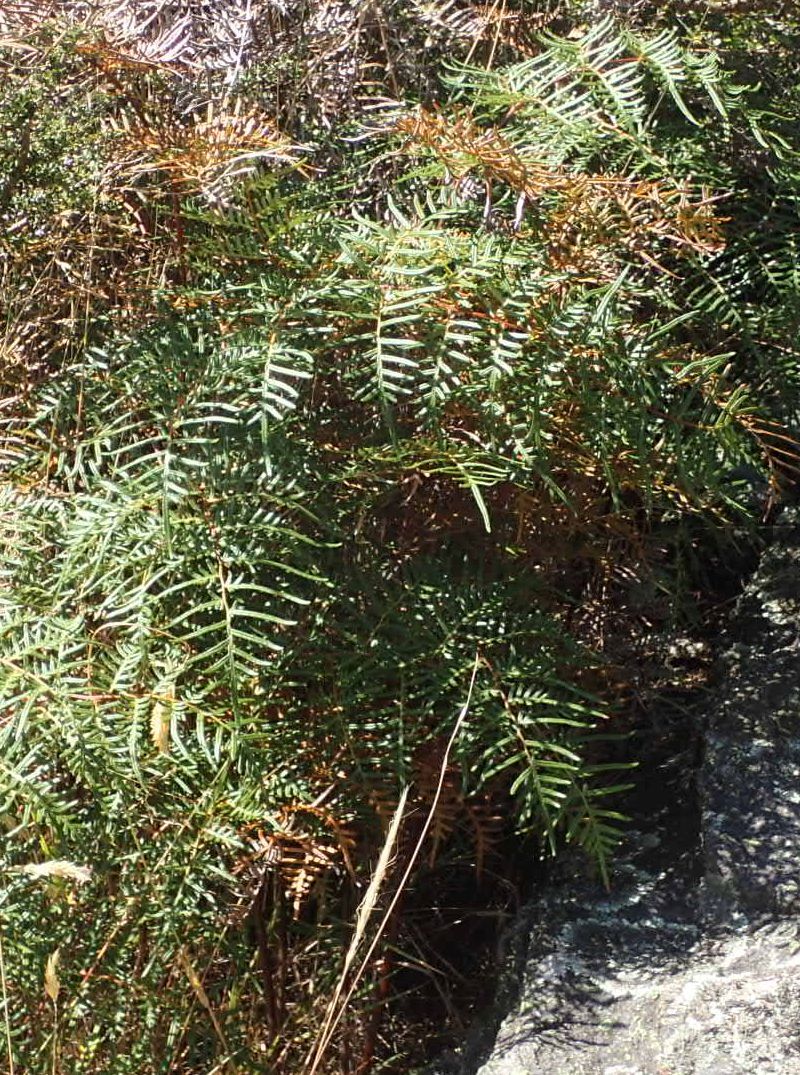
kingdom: Plantae
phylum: Tracheophyta
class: Polypodiopsida
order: Polypodiales
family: Dennstaedtiaceae
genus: Pteridium
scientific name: Pteridium esculentum
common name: Bracken fern
